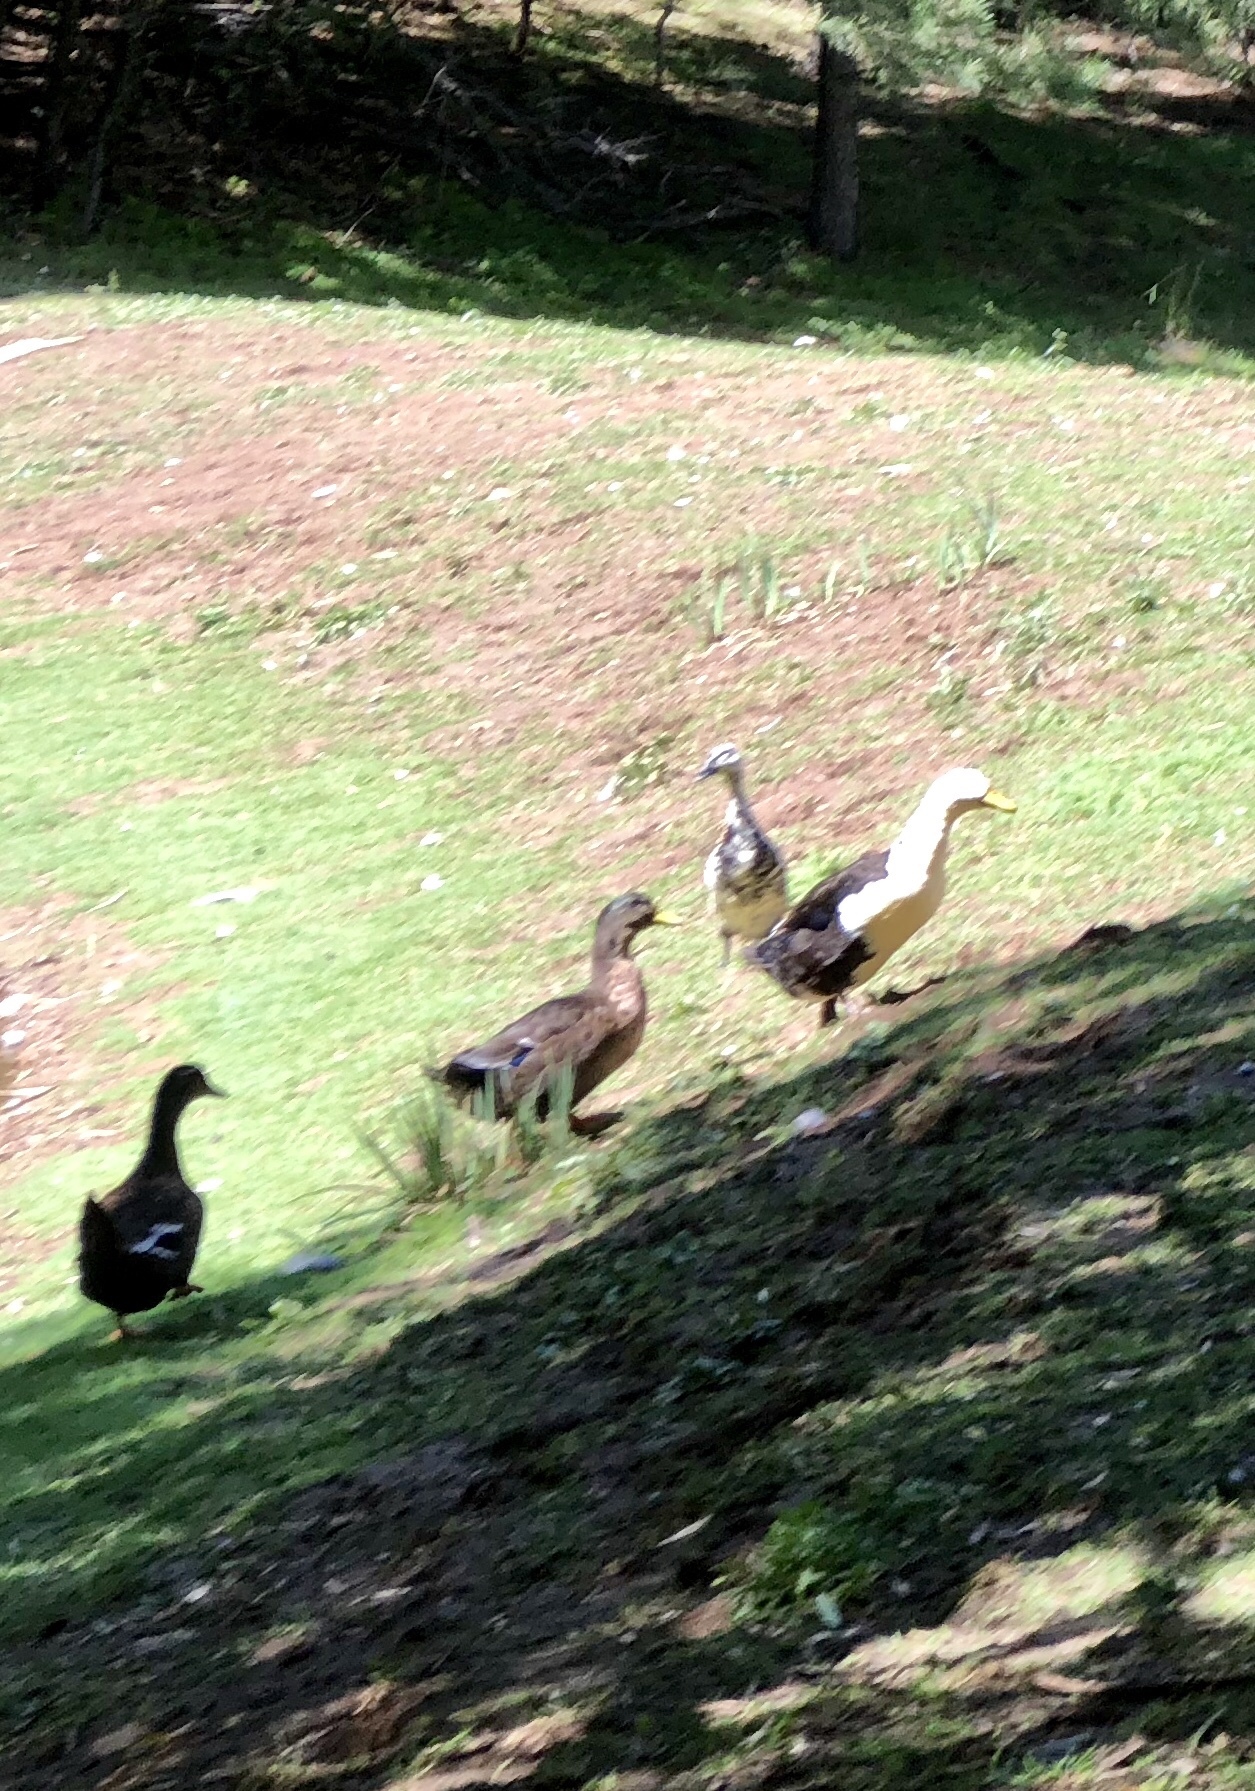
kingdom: Animalia
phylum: Chordata
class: Aves
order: Anseriformes
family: Anatidae
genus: Anas
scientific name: Anas platyrhynchos
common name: Mallard
